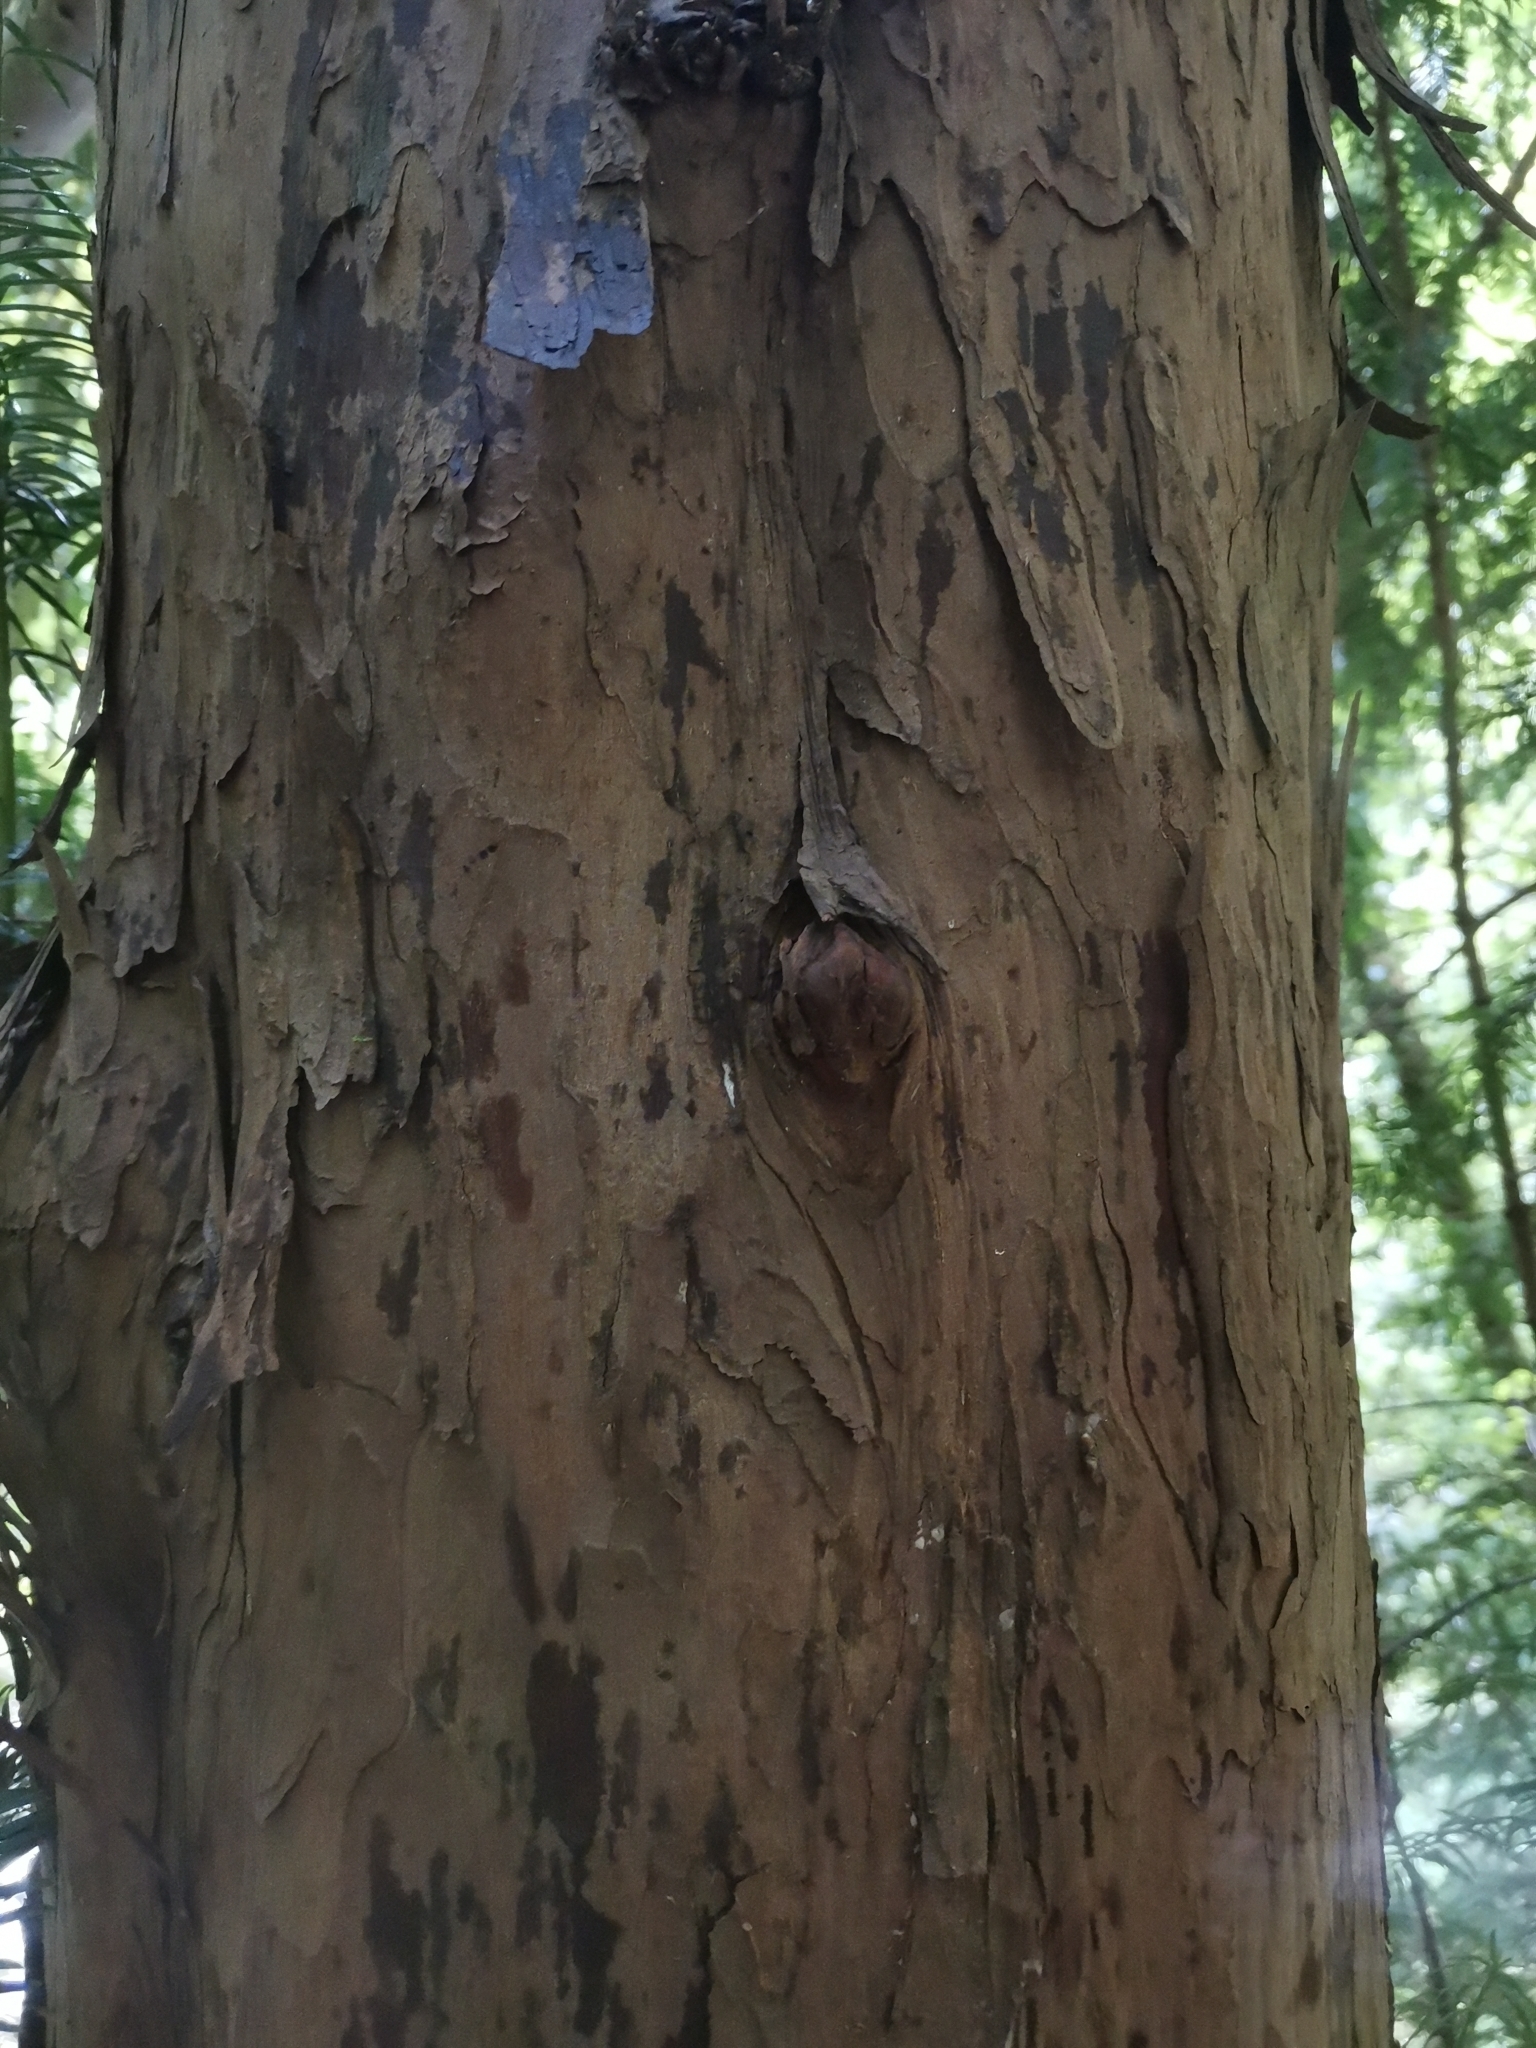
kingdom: Plantae
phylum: Tracheophyta
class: Pinopsida
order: Pinales
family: Taxaceae
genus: Taxus
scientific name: Taxus baccata
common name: Yew
